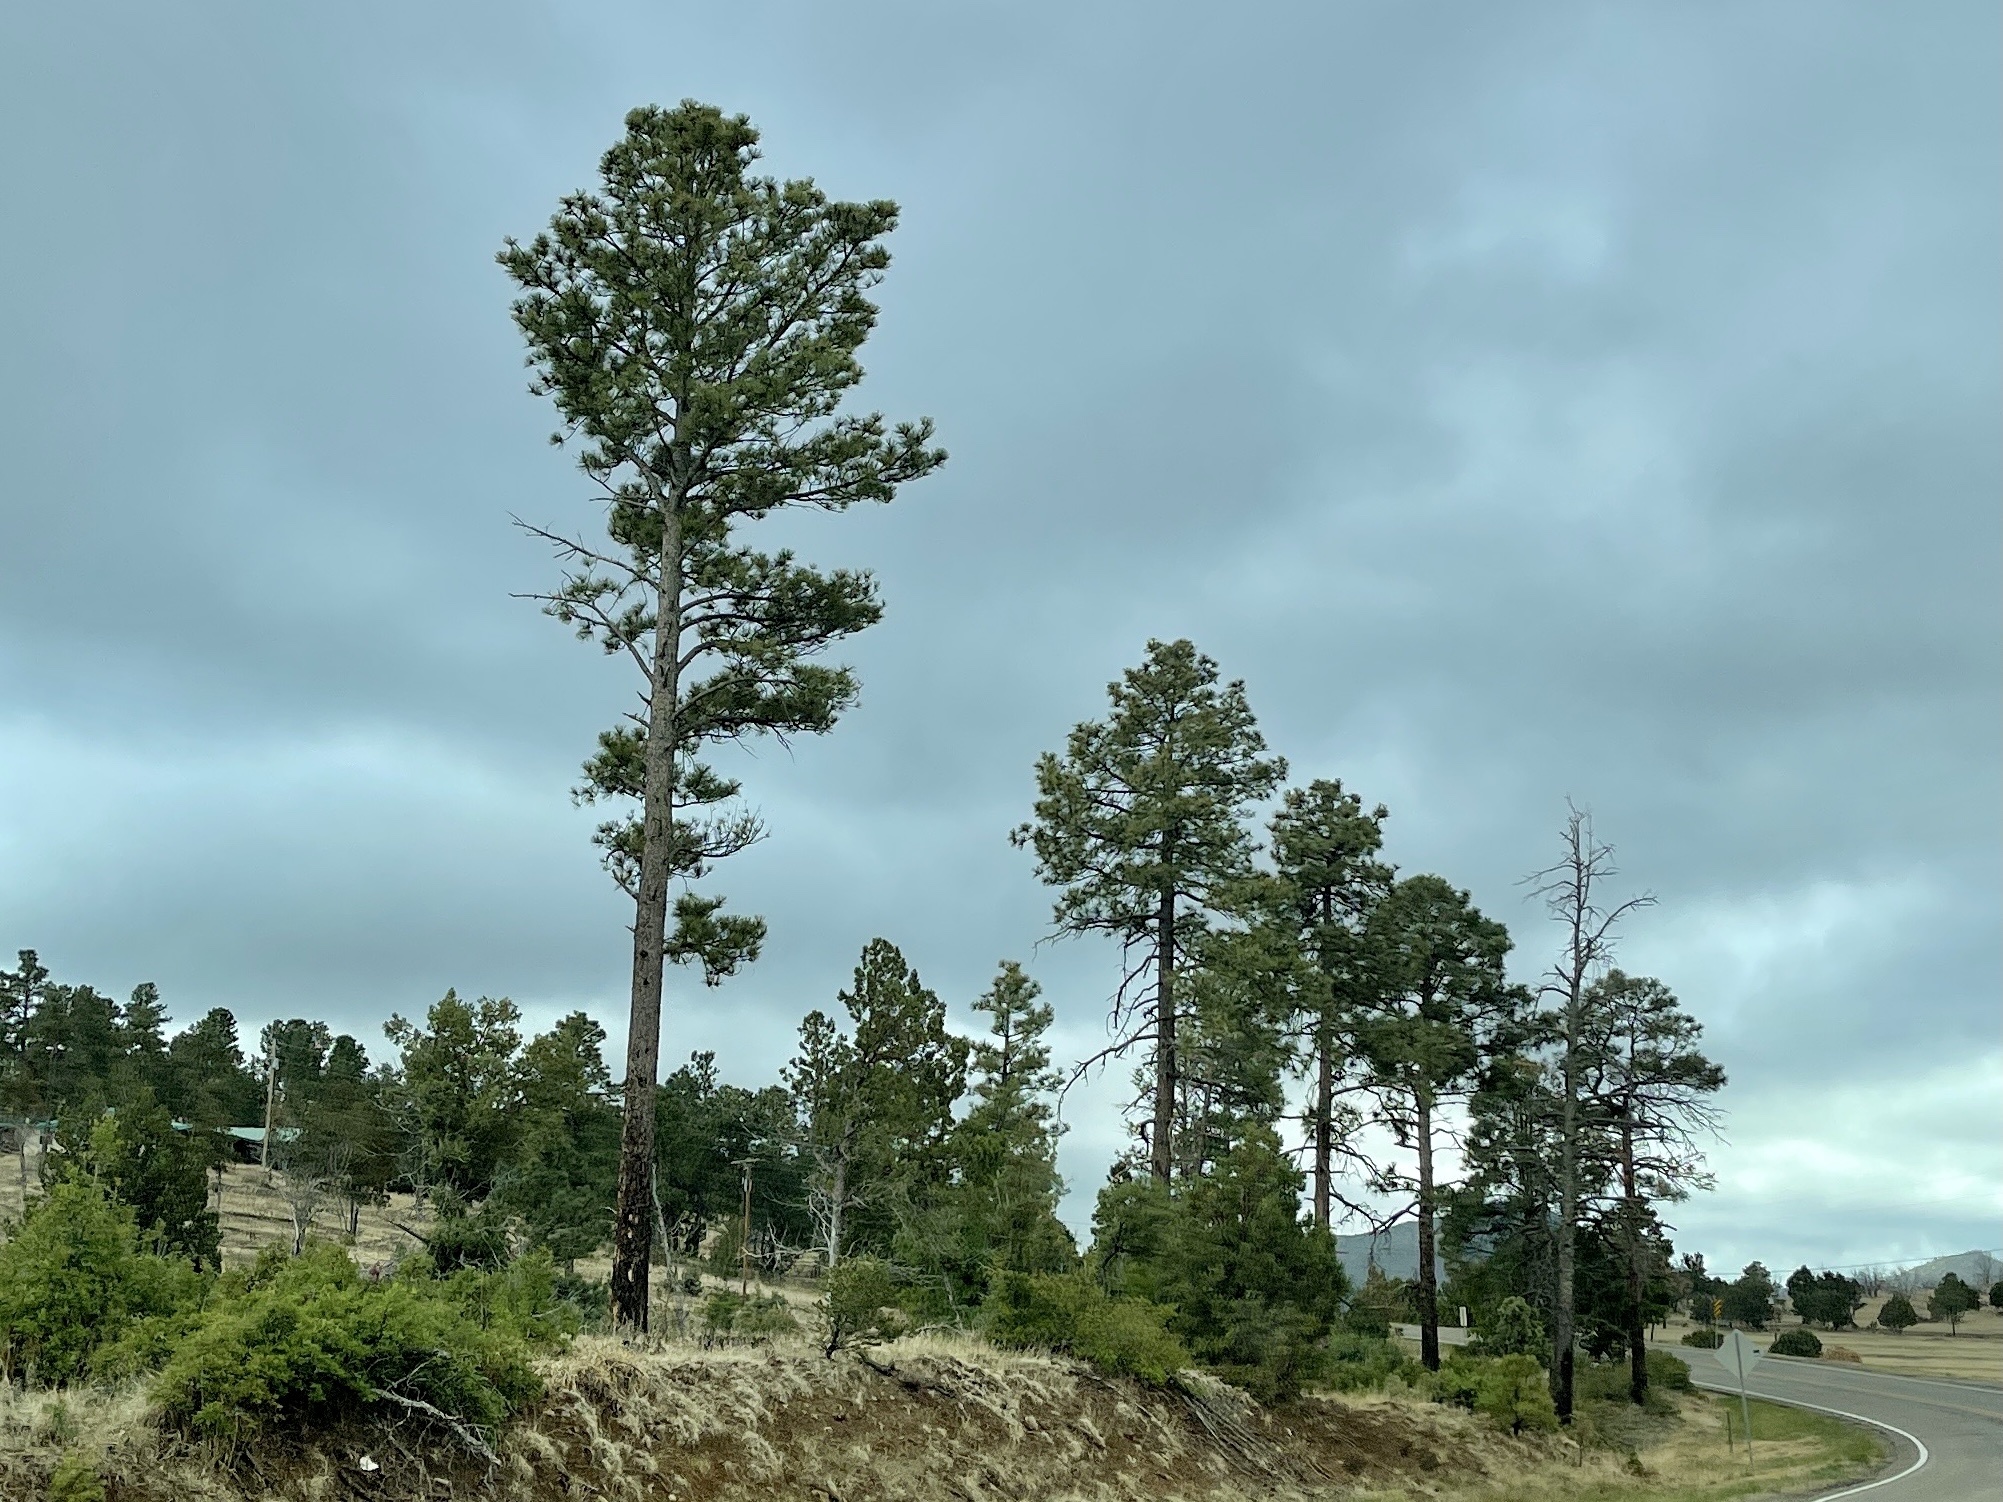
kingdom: Plantae
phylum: Tracheophyta
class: Pinopsida
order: Pinales
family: Pinaceae
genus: Pinus
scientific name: Pinus ponderosa
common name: Western yellow-pine
